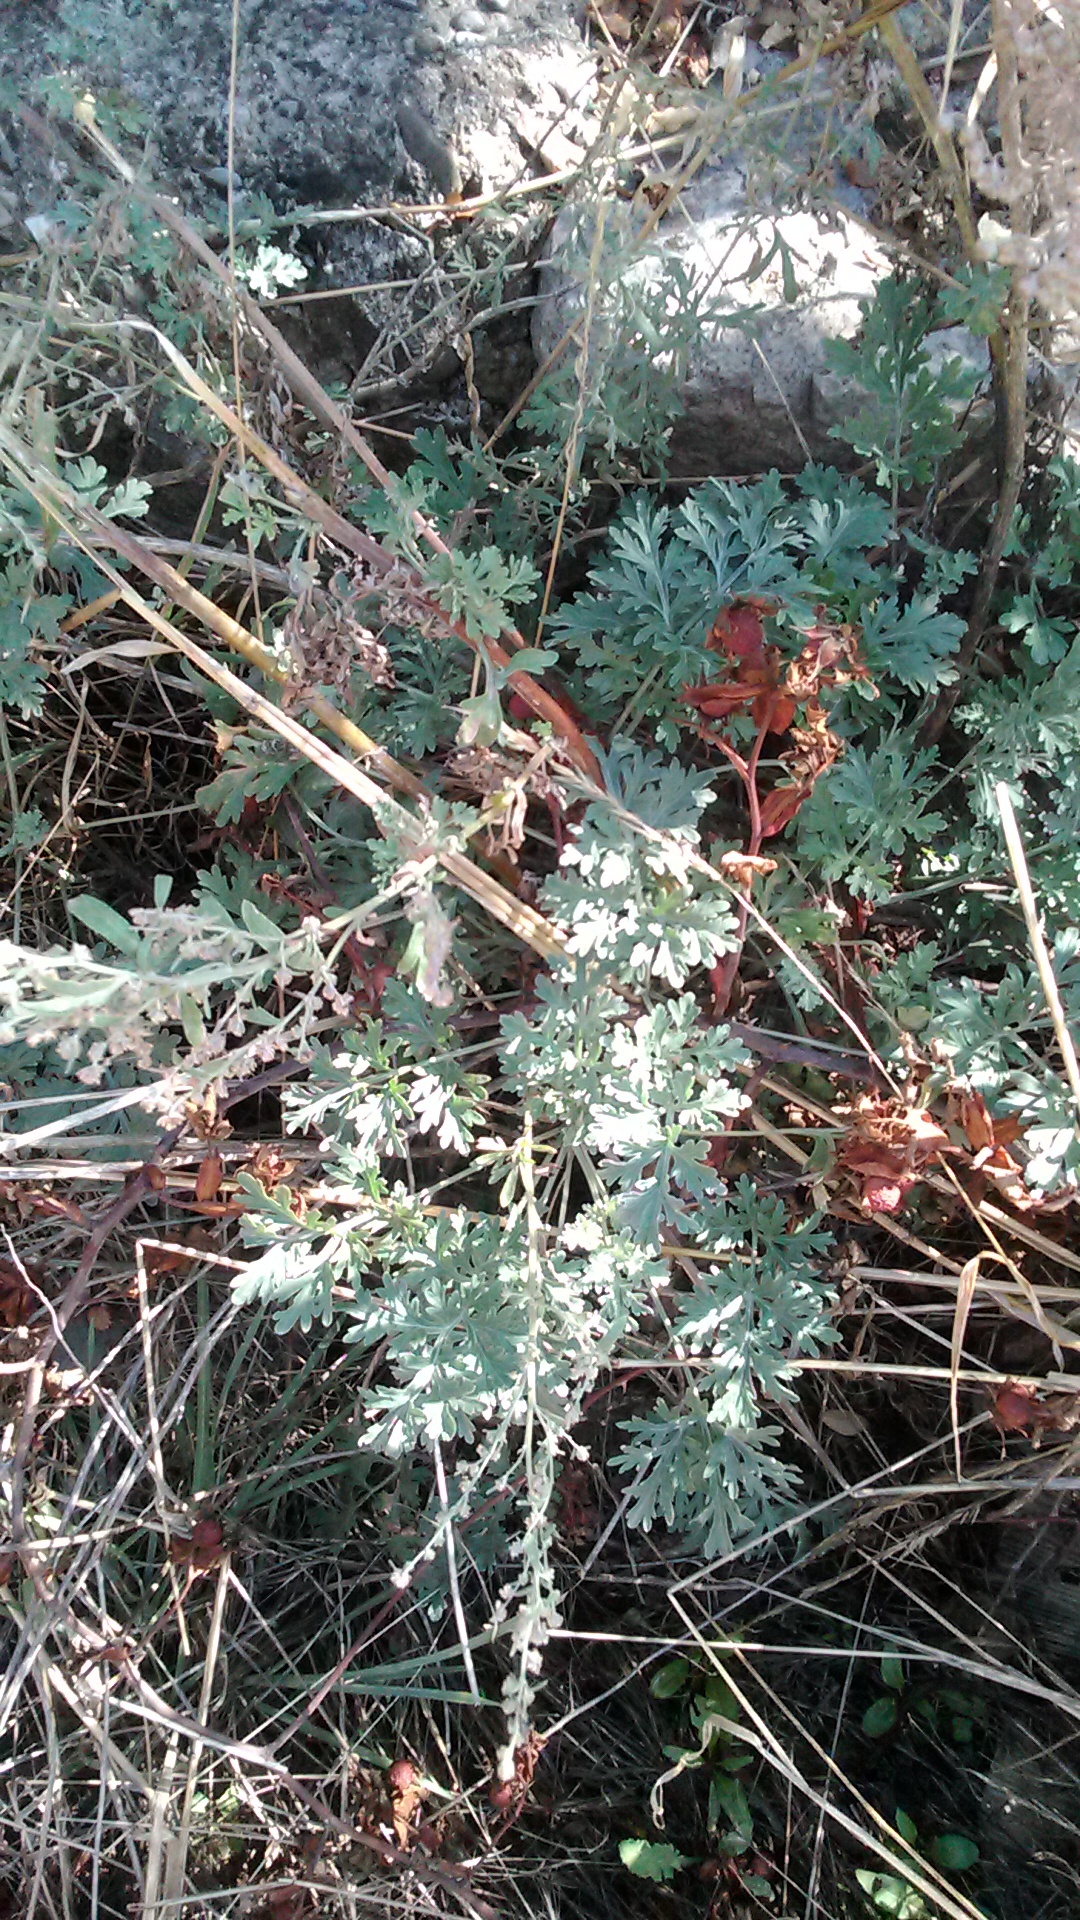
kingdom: Plantae
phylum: Tracheophyta
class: Magnoliopsida
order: Asterales
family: Asteraceae
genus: Artemisia
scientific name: Artemisia absinthium
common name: Wormwood
